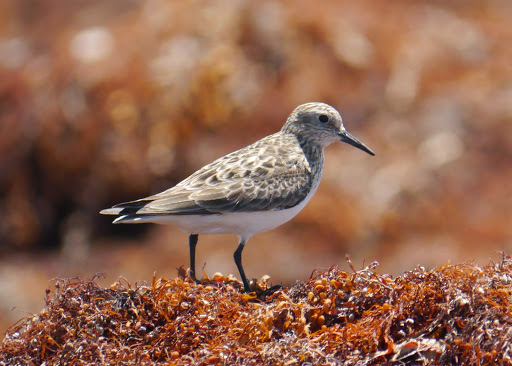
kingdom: Animalia
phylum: Chordata
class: Aves
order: Charadriiformes
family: Scolopacidae
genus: Calidris
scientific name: Calidris alba
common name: Sanderling
